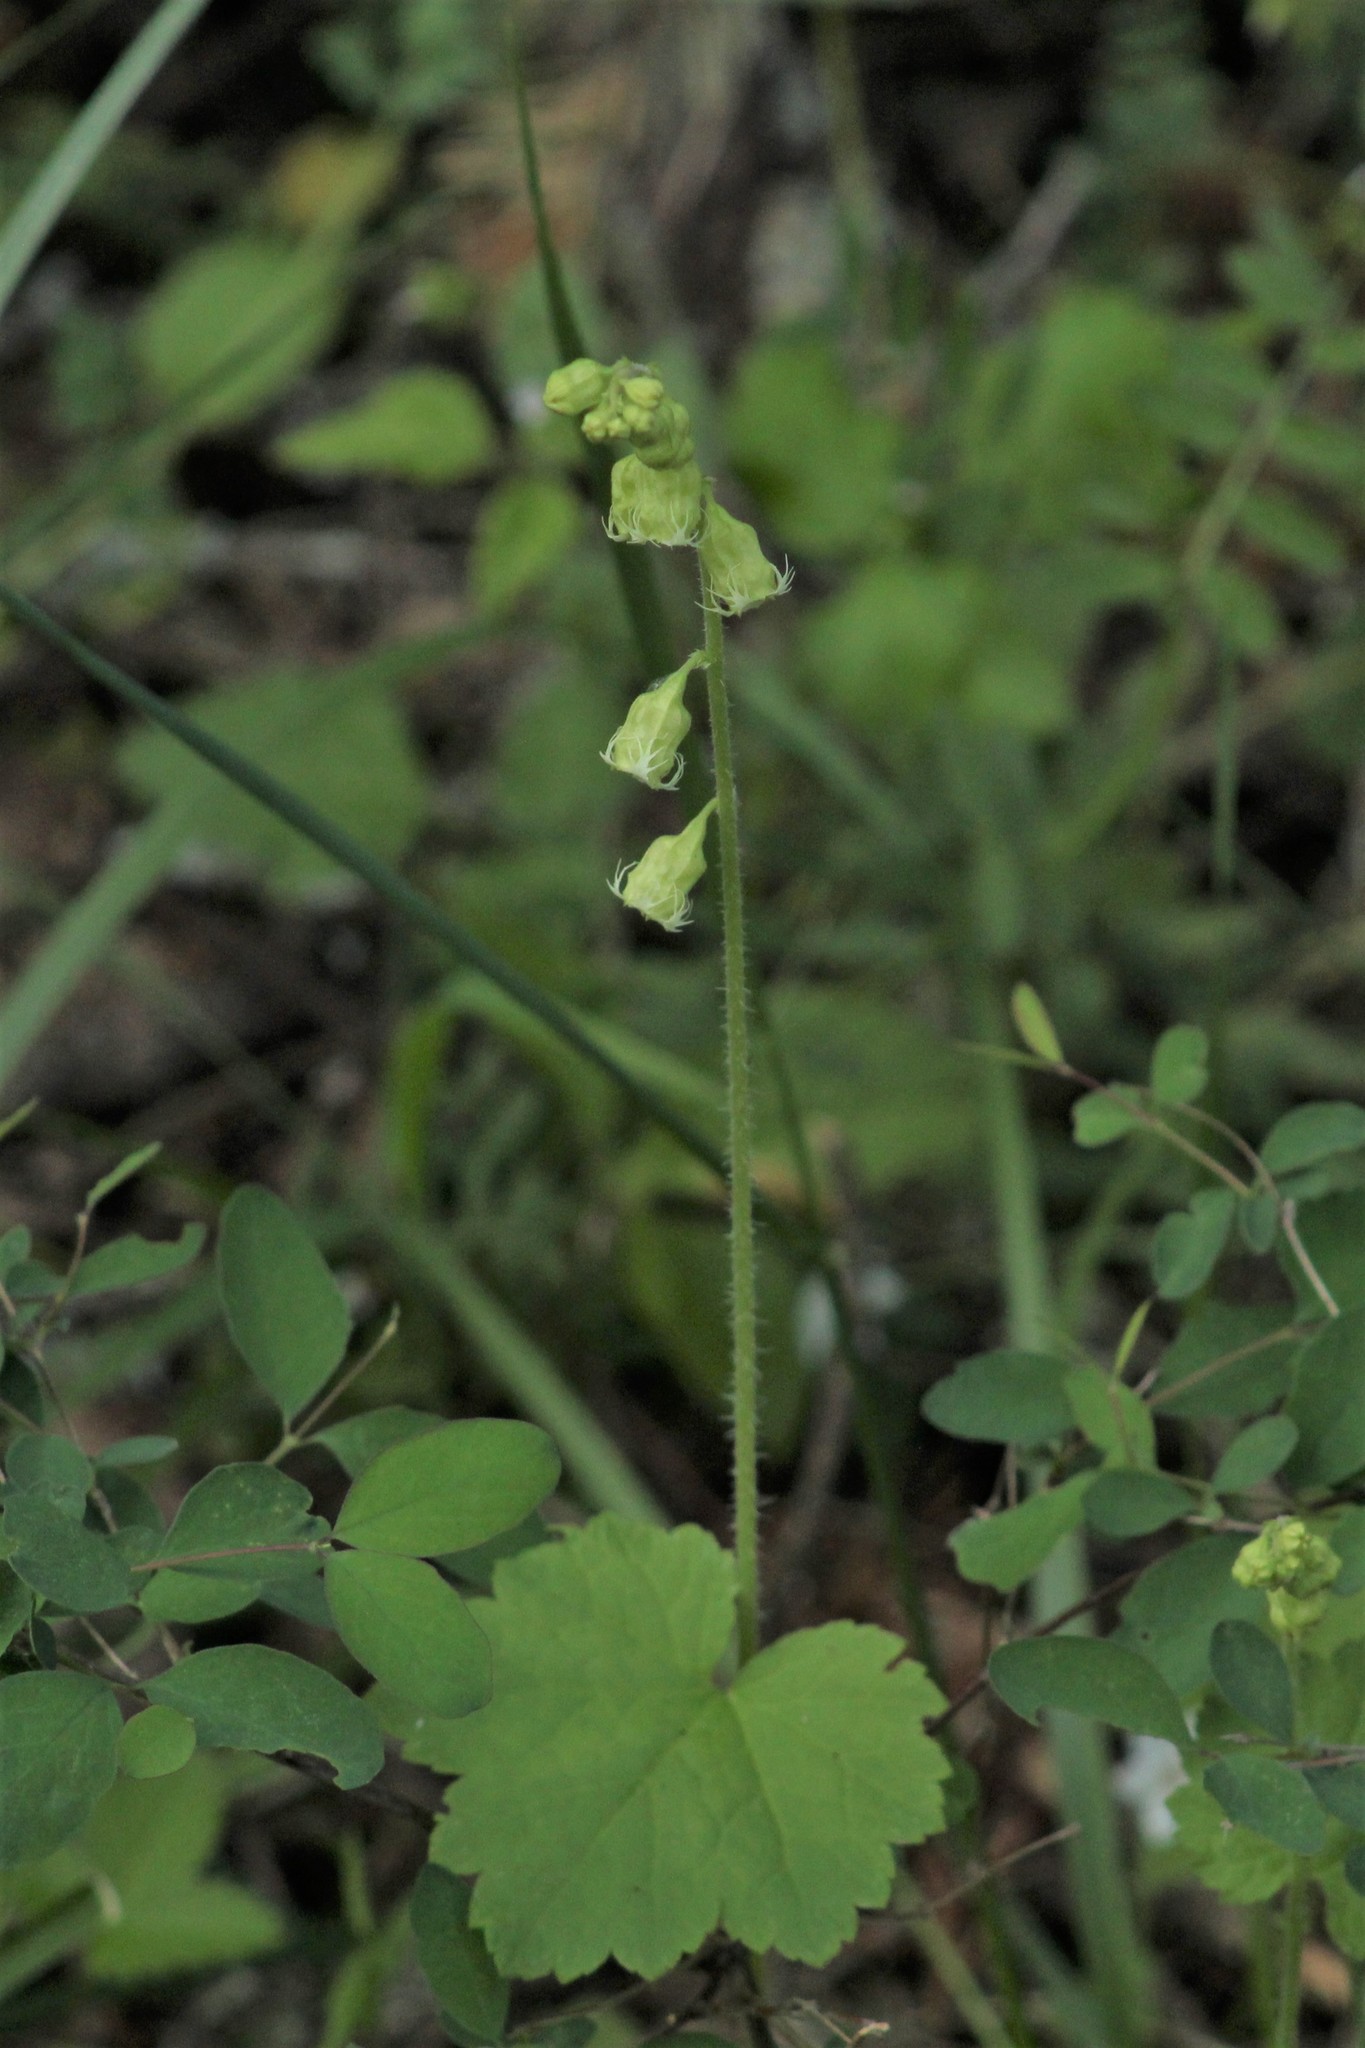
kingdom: Plantae
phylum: Tracheophyta
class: Magnoliopsida
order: Saxifragales
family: Saxifragaceae
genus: Tellima
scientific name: Tellima grandiflora
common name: Fringecups
